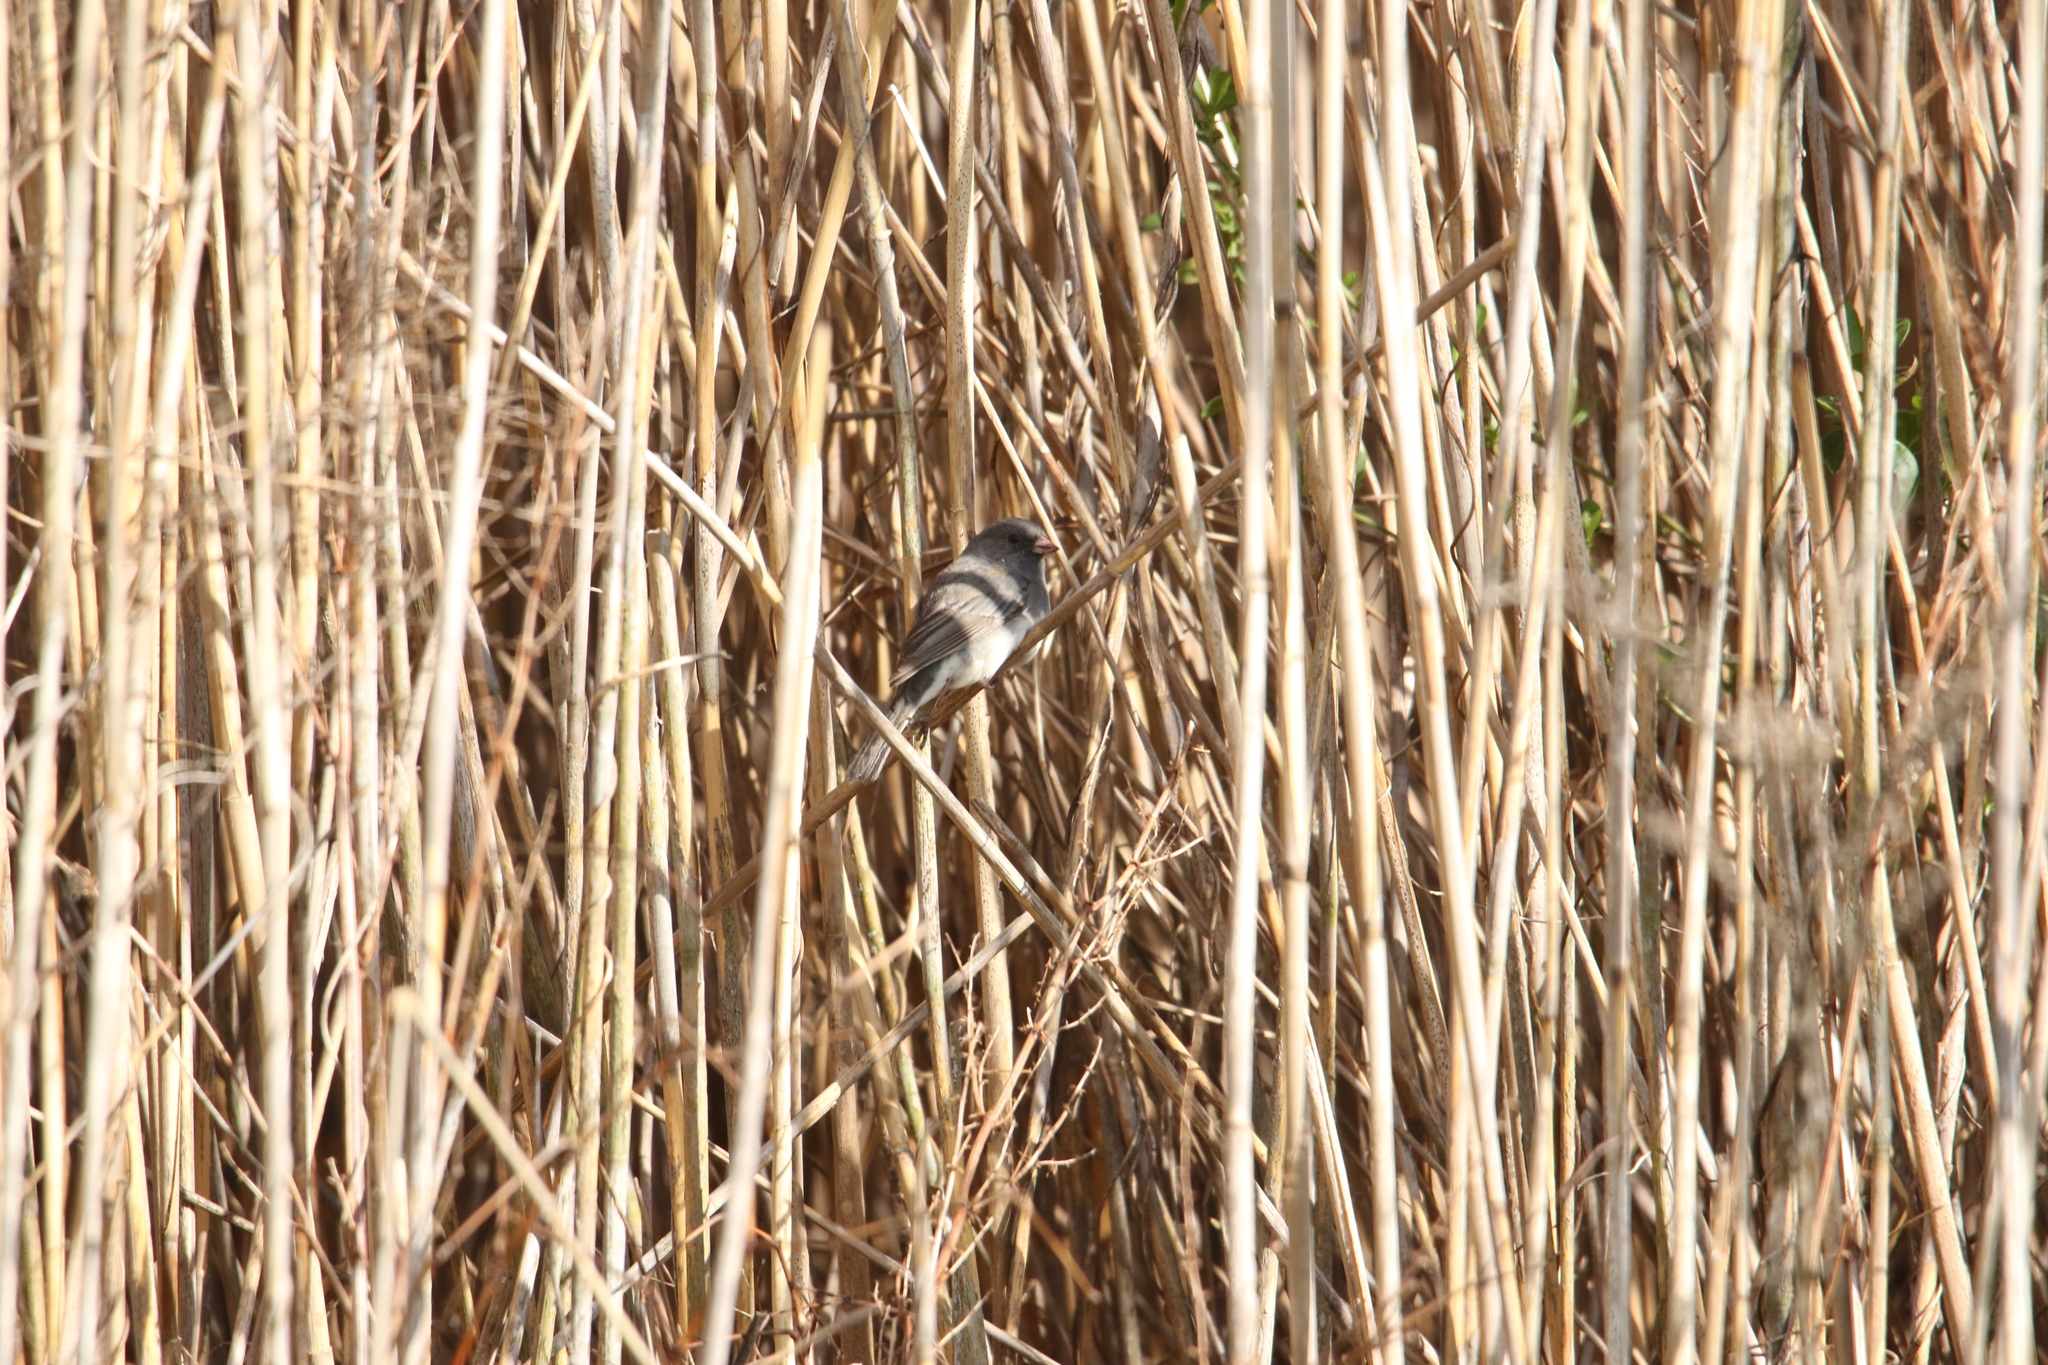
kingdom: Animalia
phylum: Chordata
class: Aves
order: Passeriformes
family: Passerellidae
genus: Junco
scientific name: Junco hyemalis
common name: Dark-eyed junco
